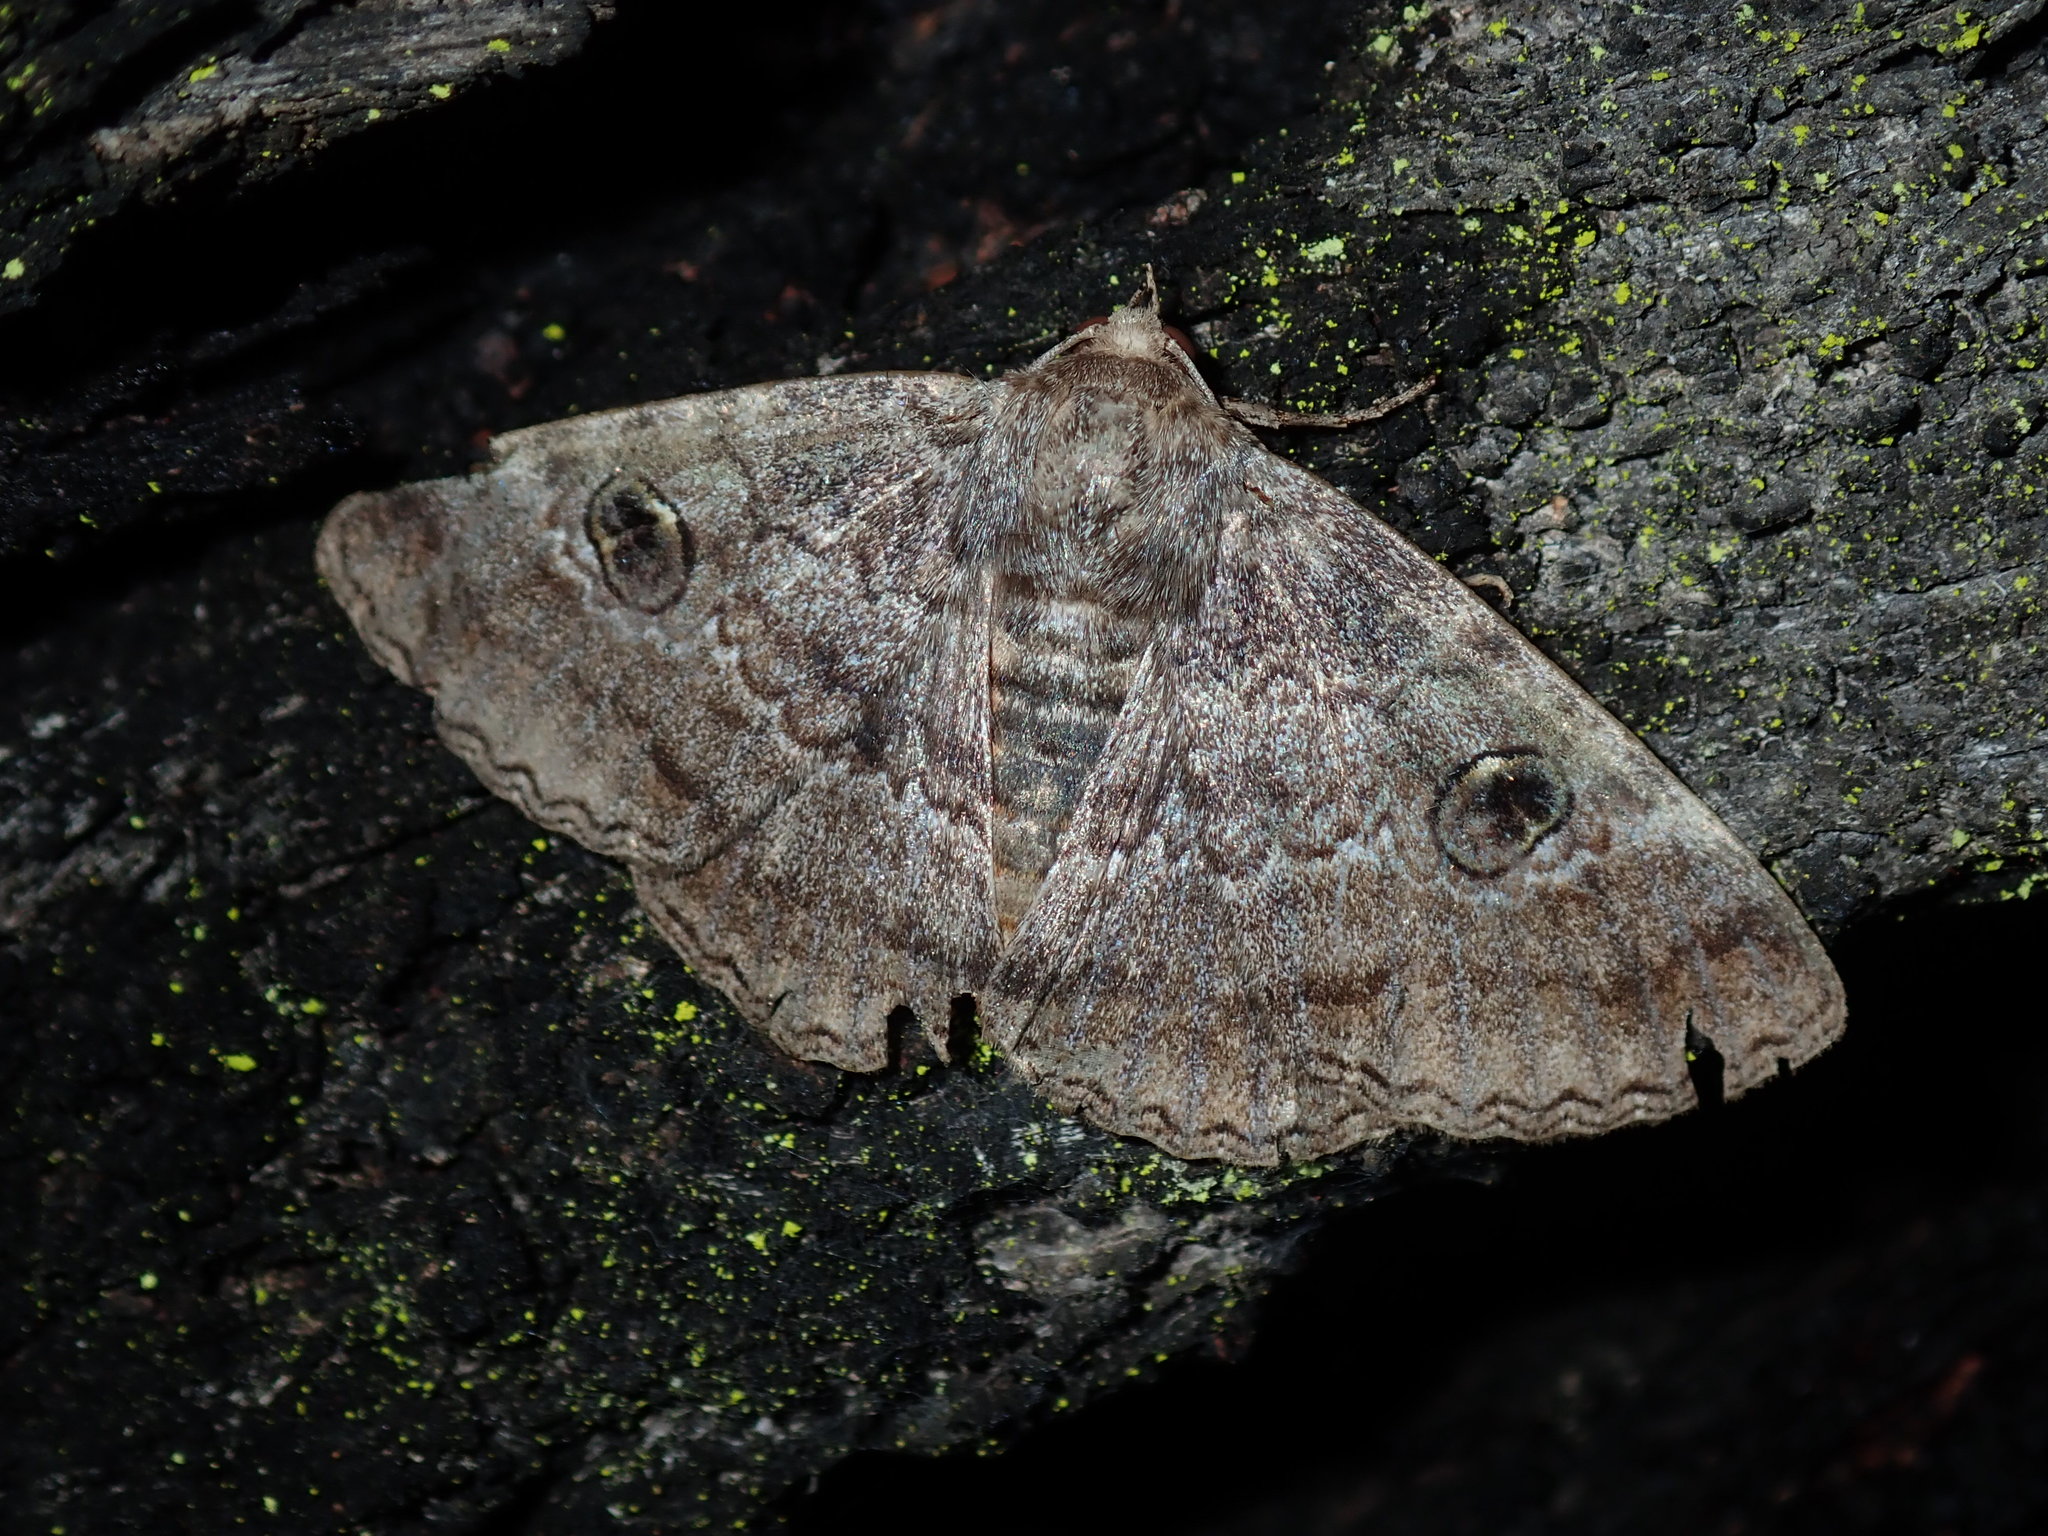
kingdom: Animalia
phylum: Arthropoda
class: Insecta
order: Lepidoptera
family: Erebidae
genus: Donuca
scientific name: Donuca castalia
